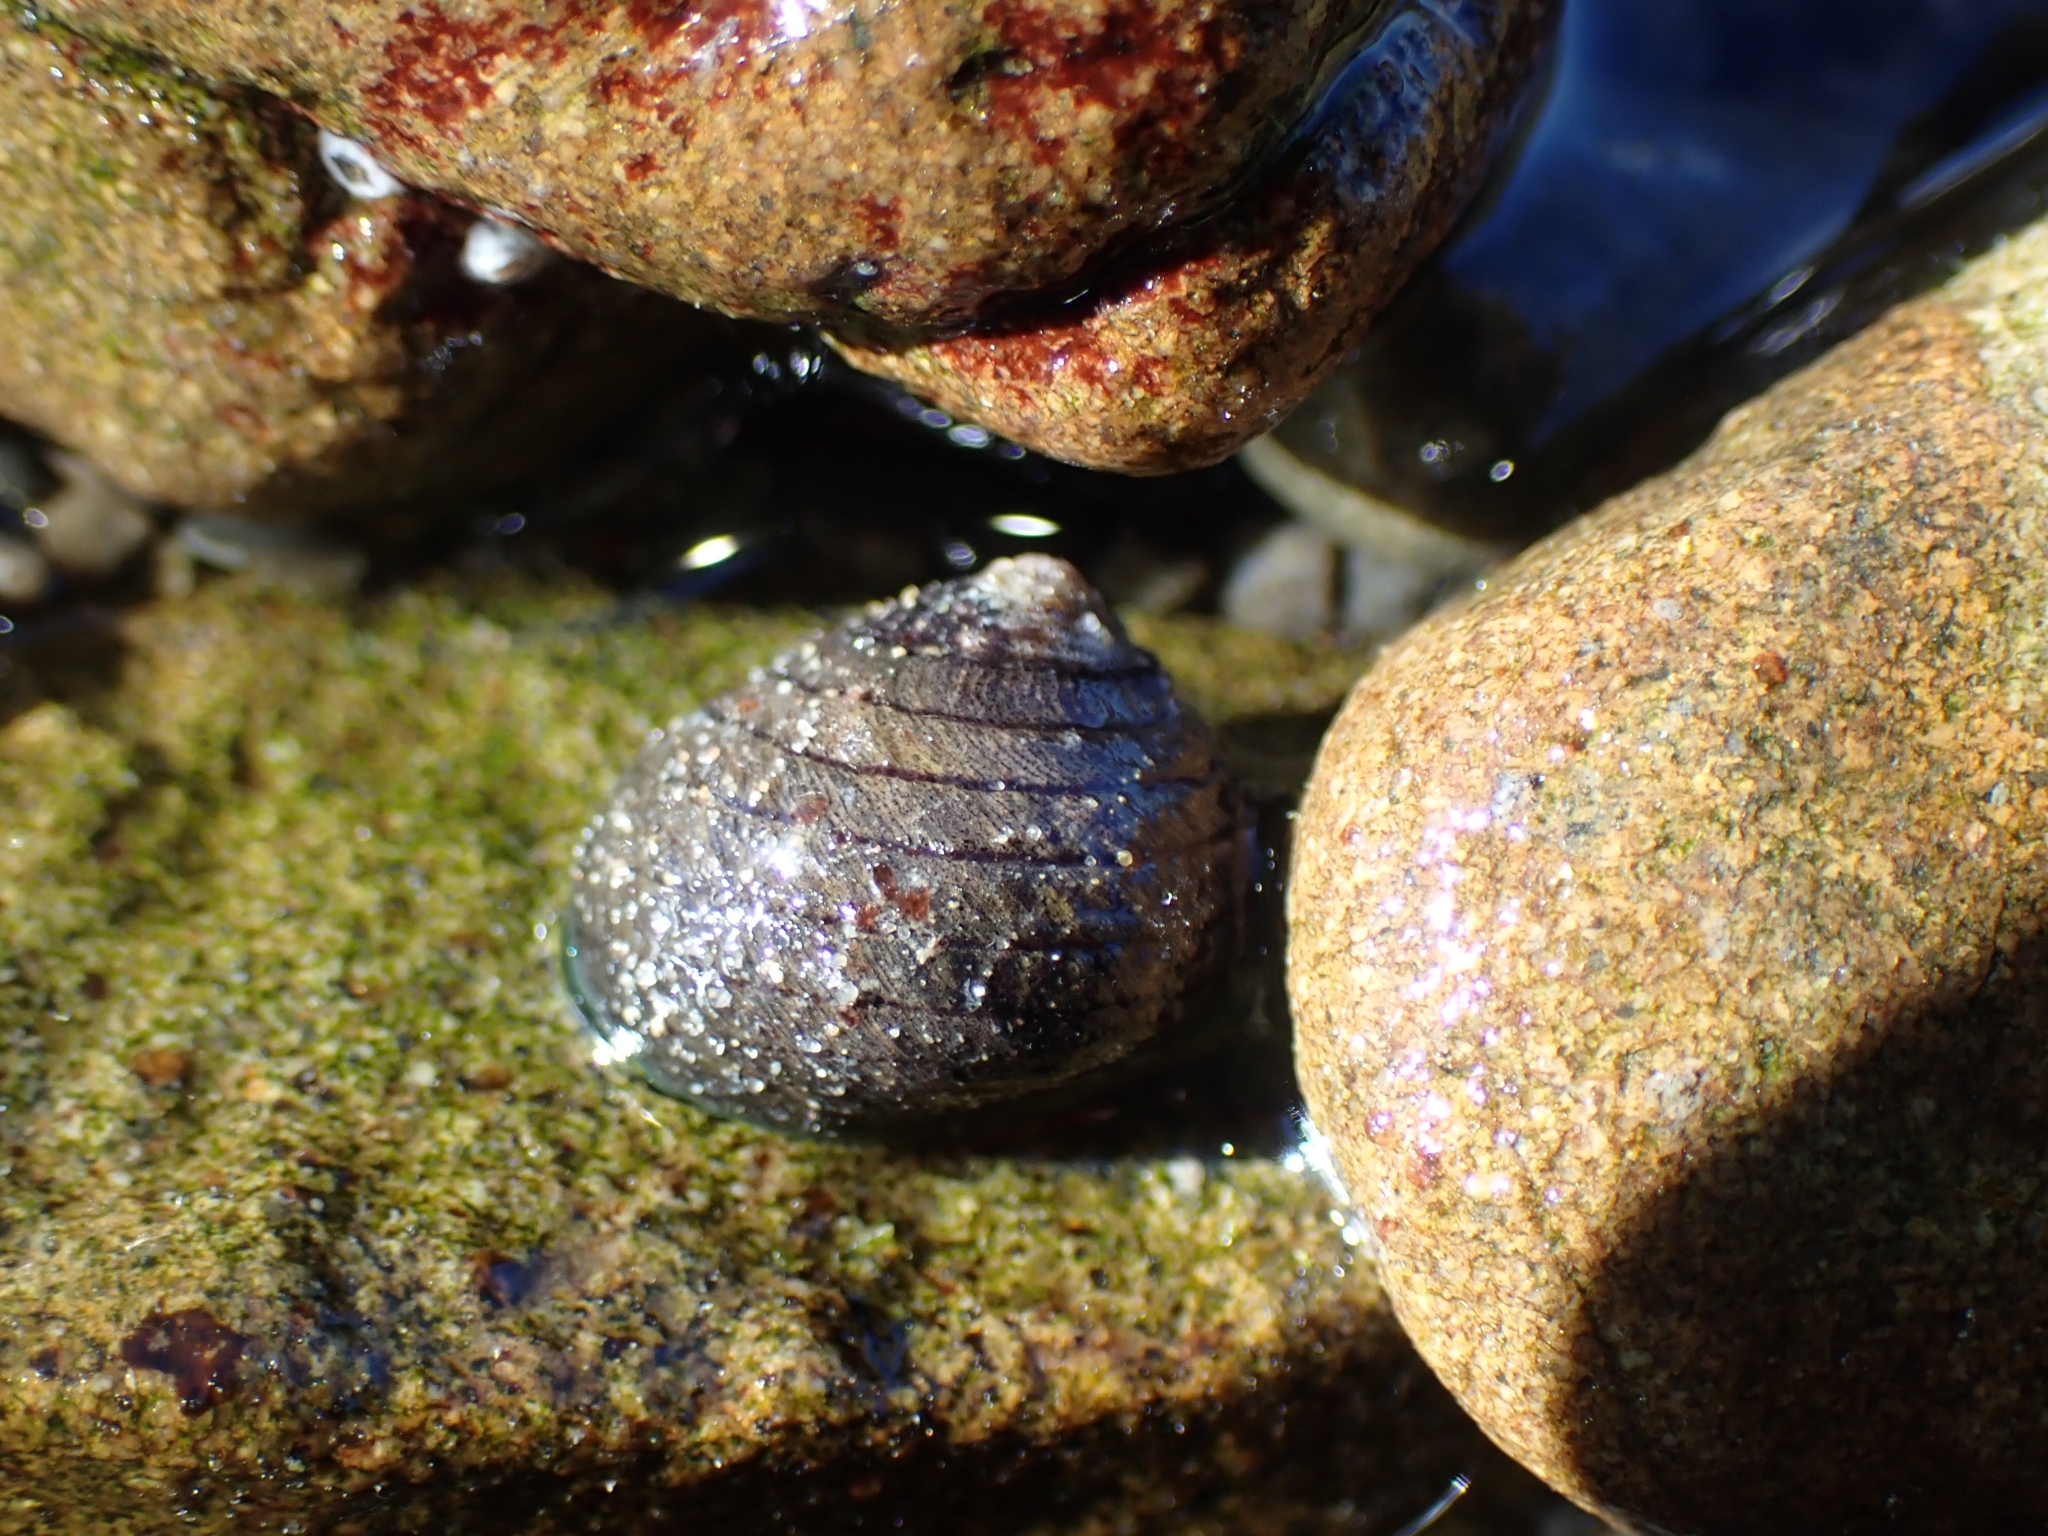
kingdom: Animalia
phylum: Mollusca
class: Gastropoda
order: Trochida
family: Trochidae
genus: Diloma
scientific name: Diloma aethiops
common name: Scorched monodont
